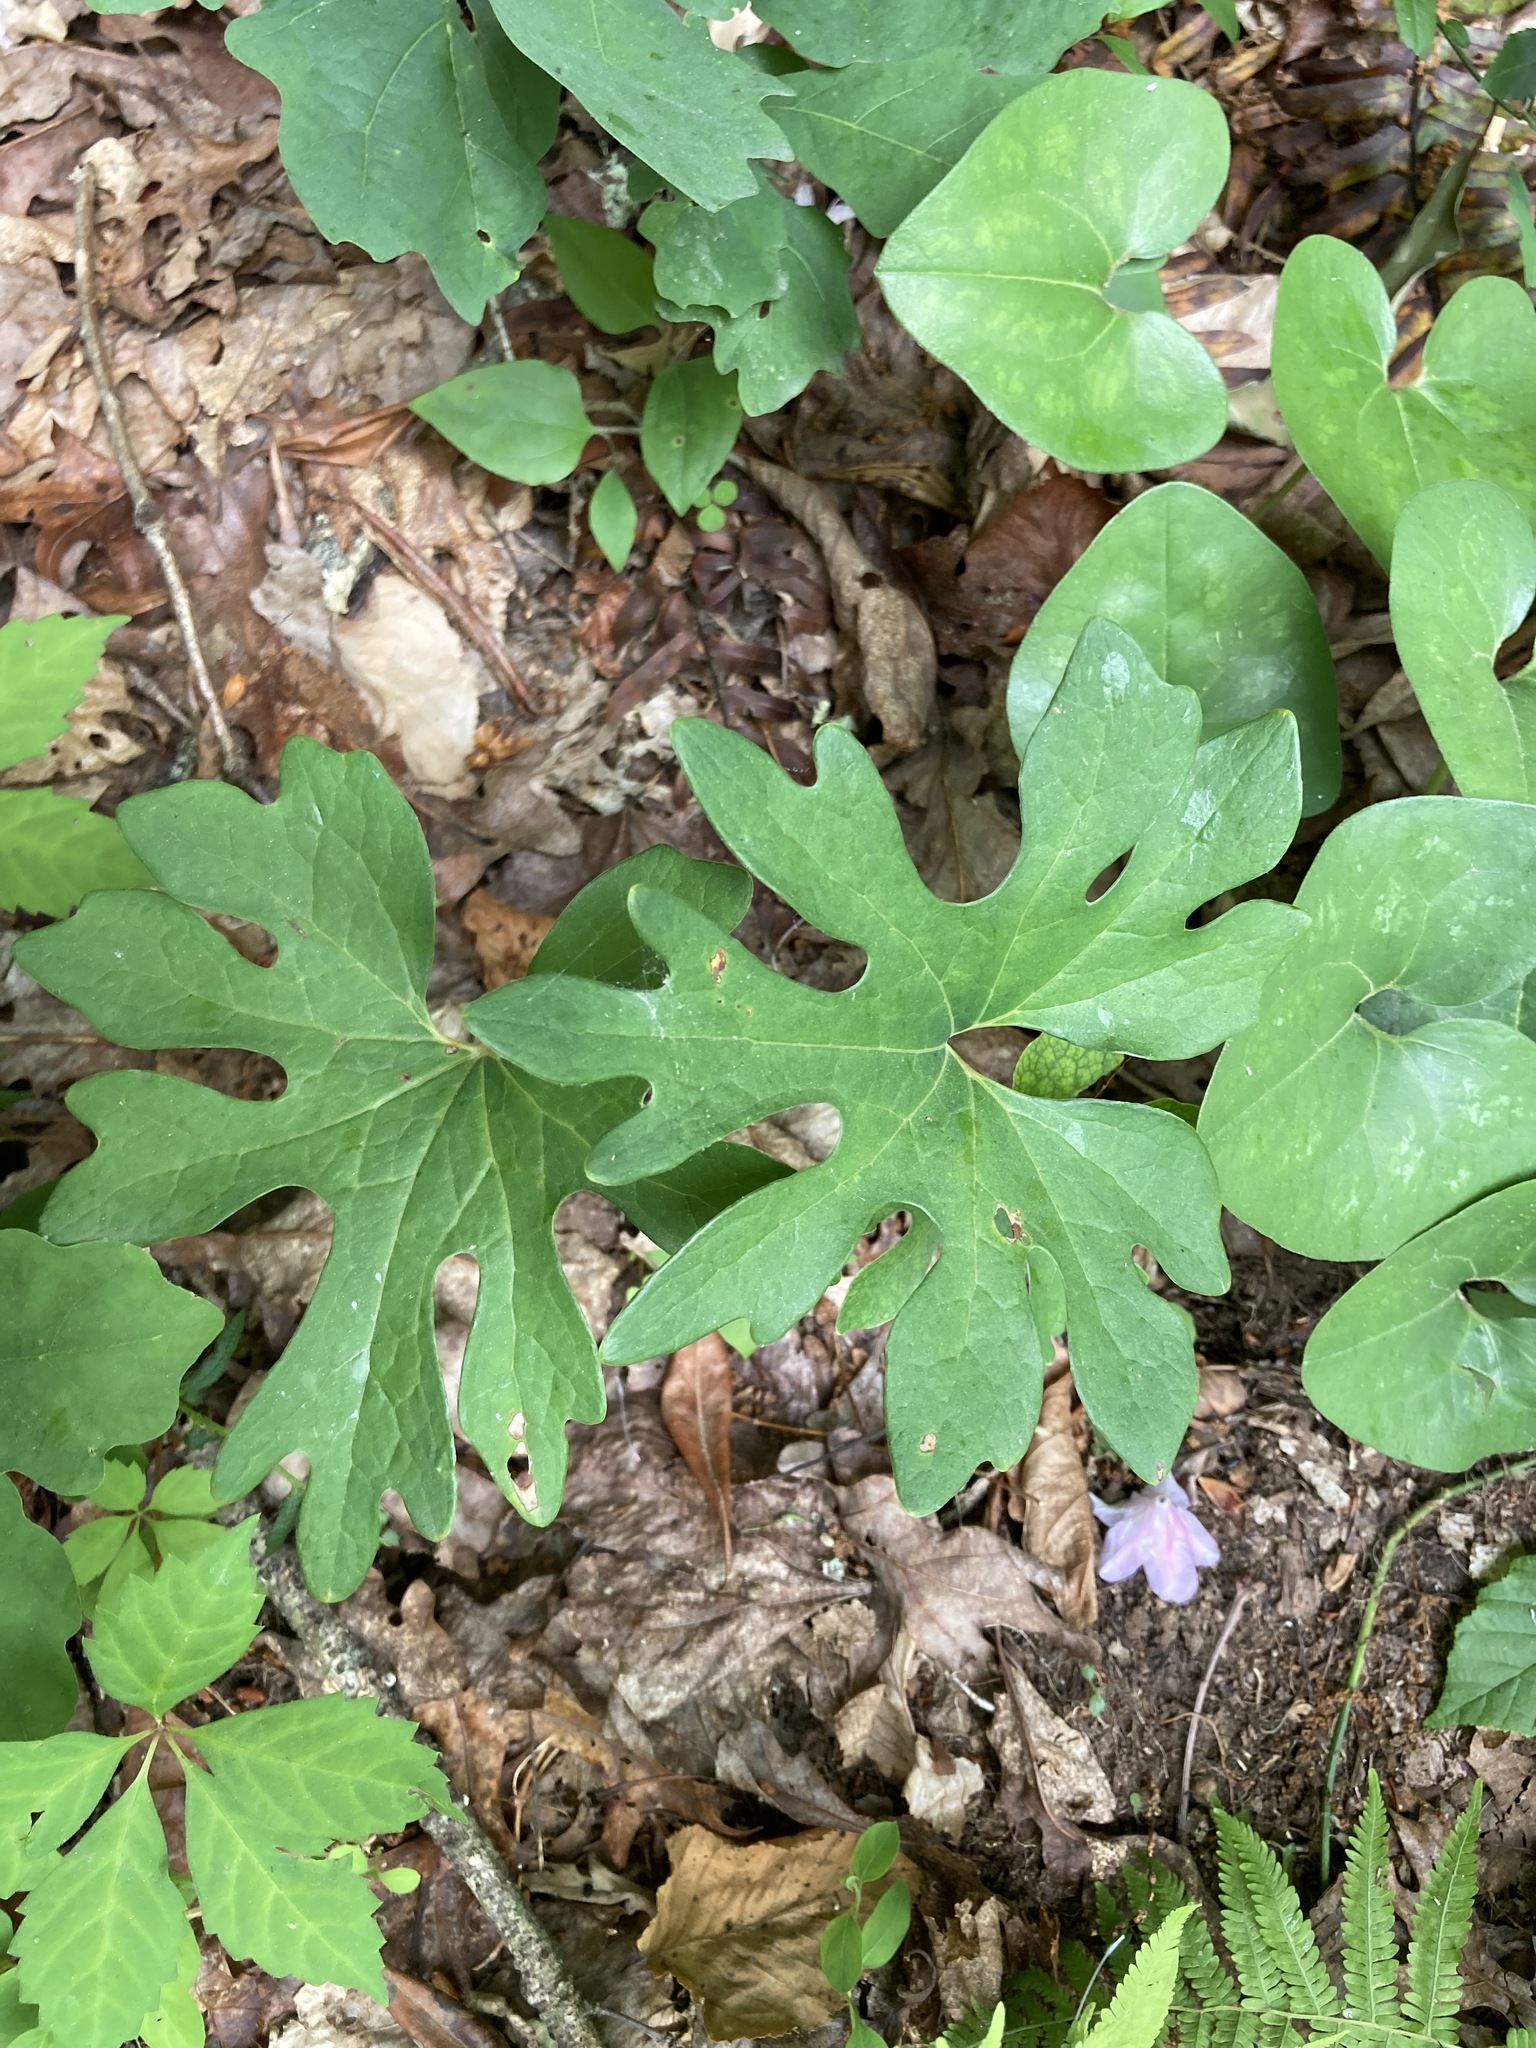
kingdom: Plantae
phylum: Tracheophyta
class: Magnoliopsida
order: Ranunculales
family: Papaveraceae
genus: Sanguinaria
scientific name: Sanguinaria canadensis
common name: Bloodroot
